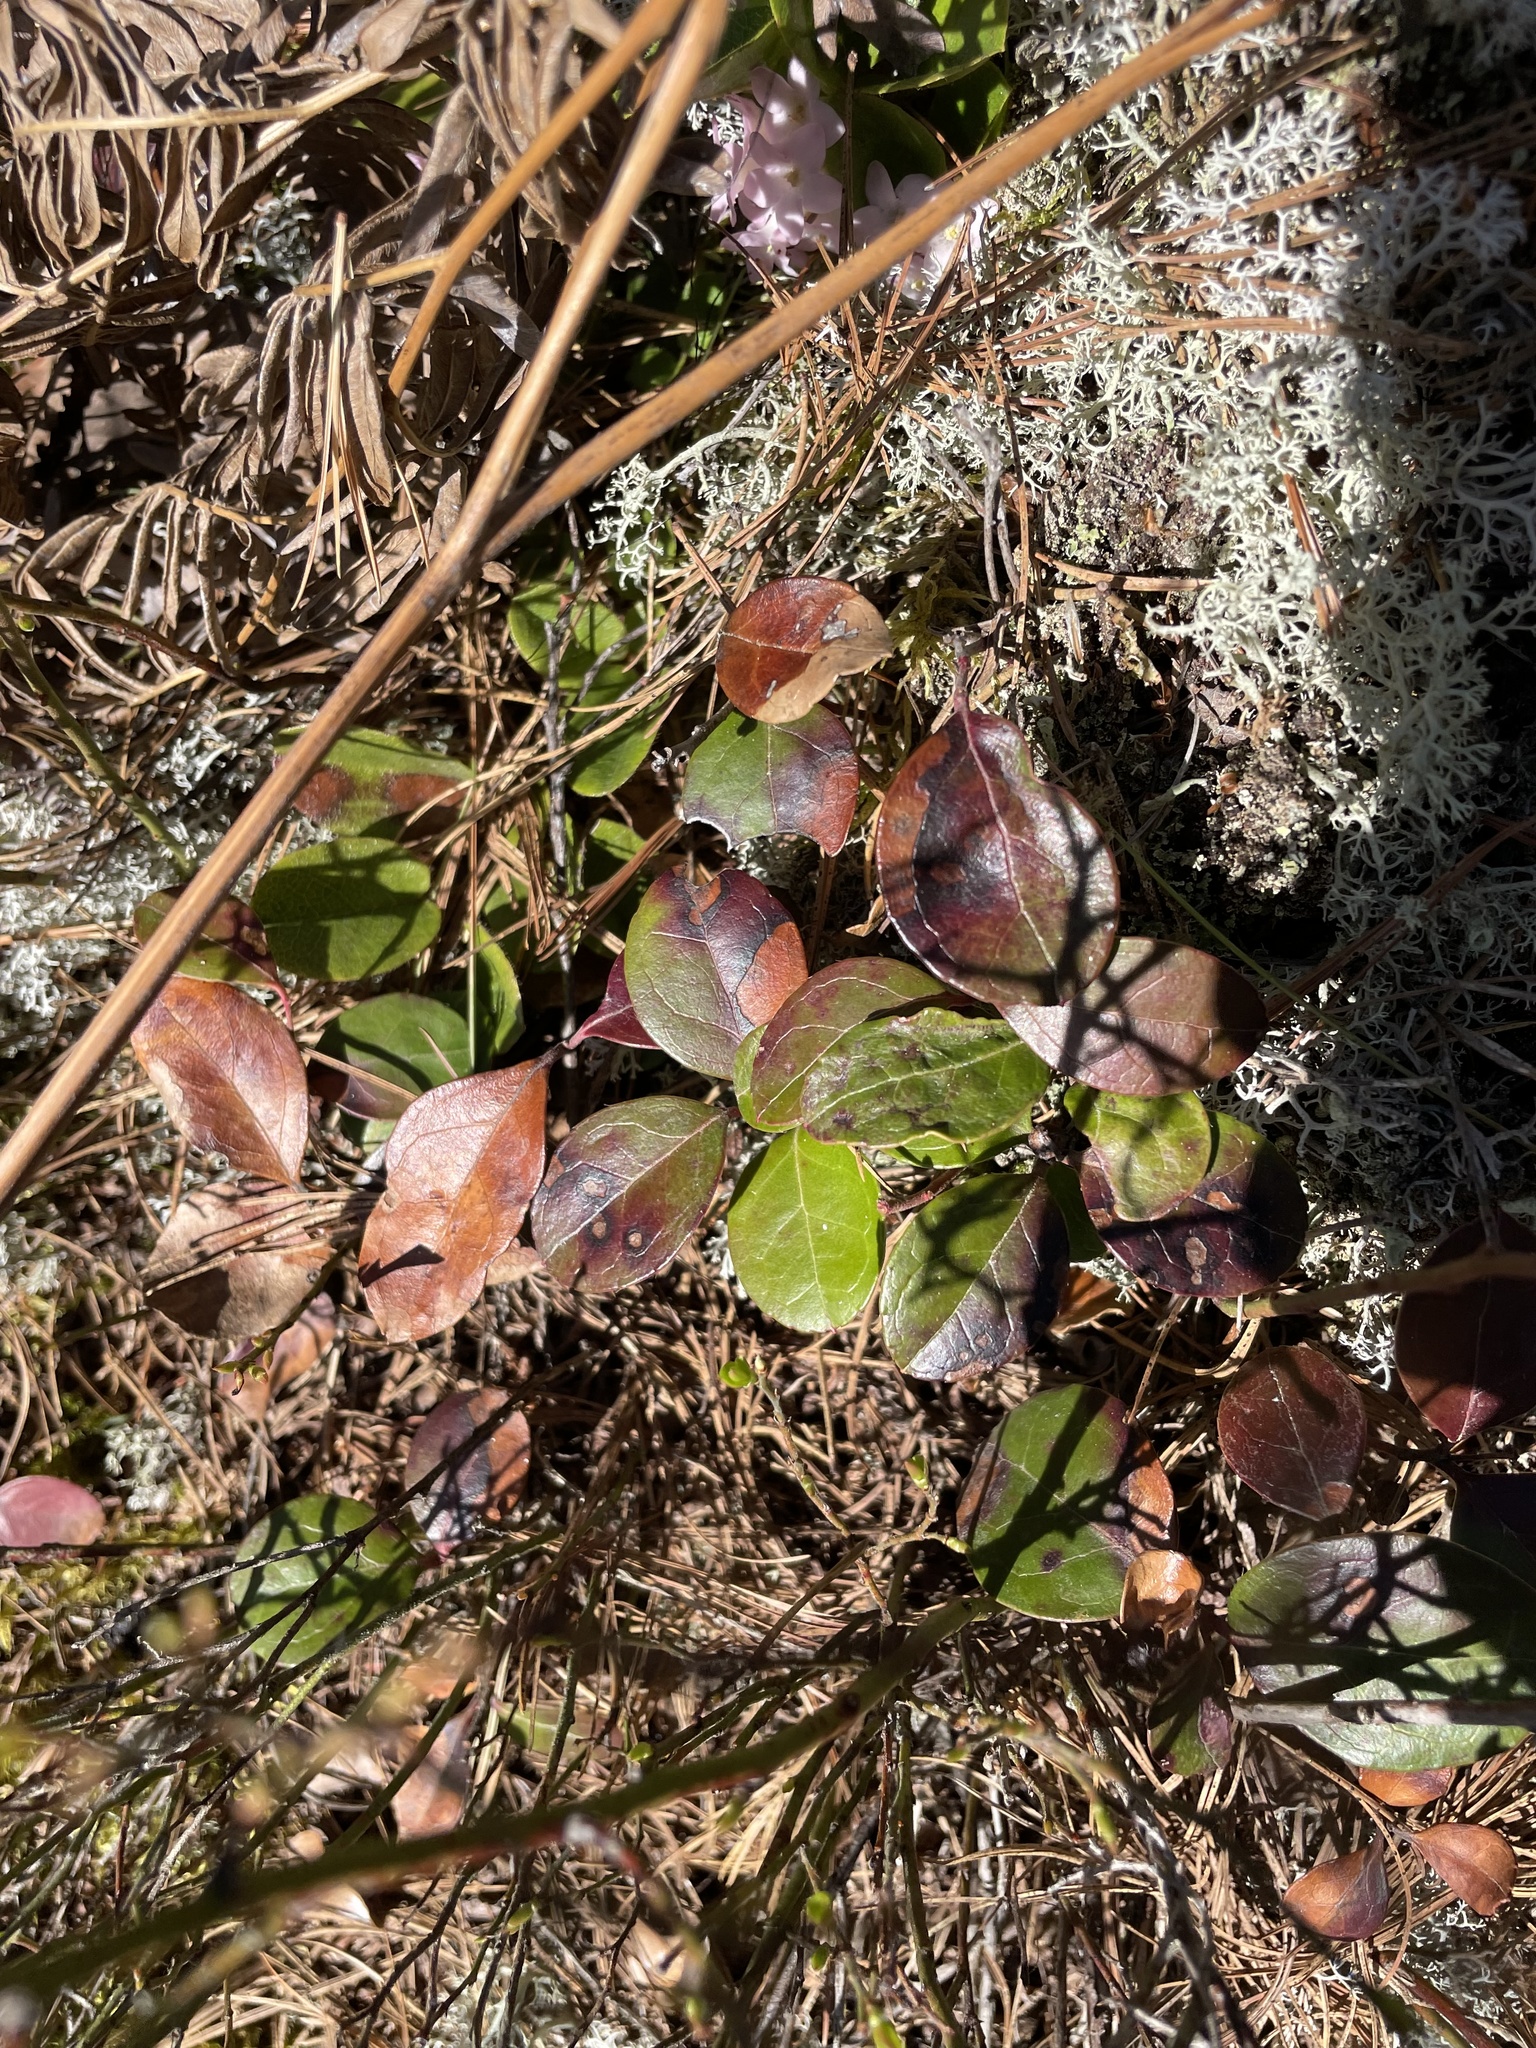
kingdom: Plantae
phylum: Tracheophyta
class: Magnoliopsida
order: Ericales
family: Ericaceae
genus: Gaultheria
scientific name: Gaultheria procumbens
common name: Checkerberry
